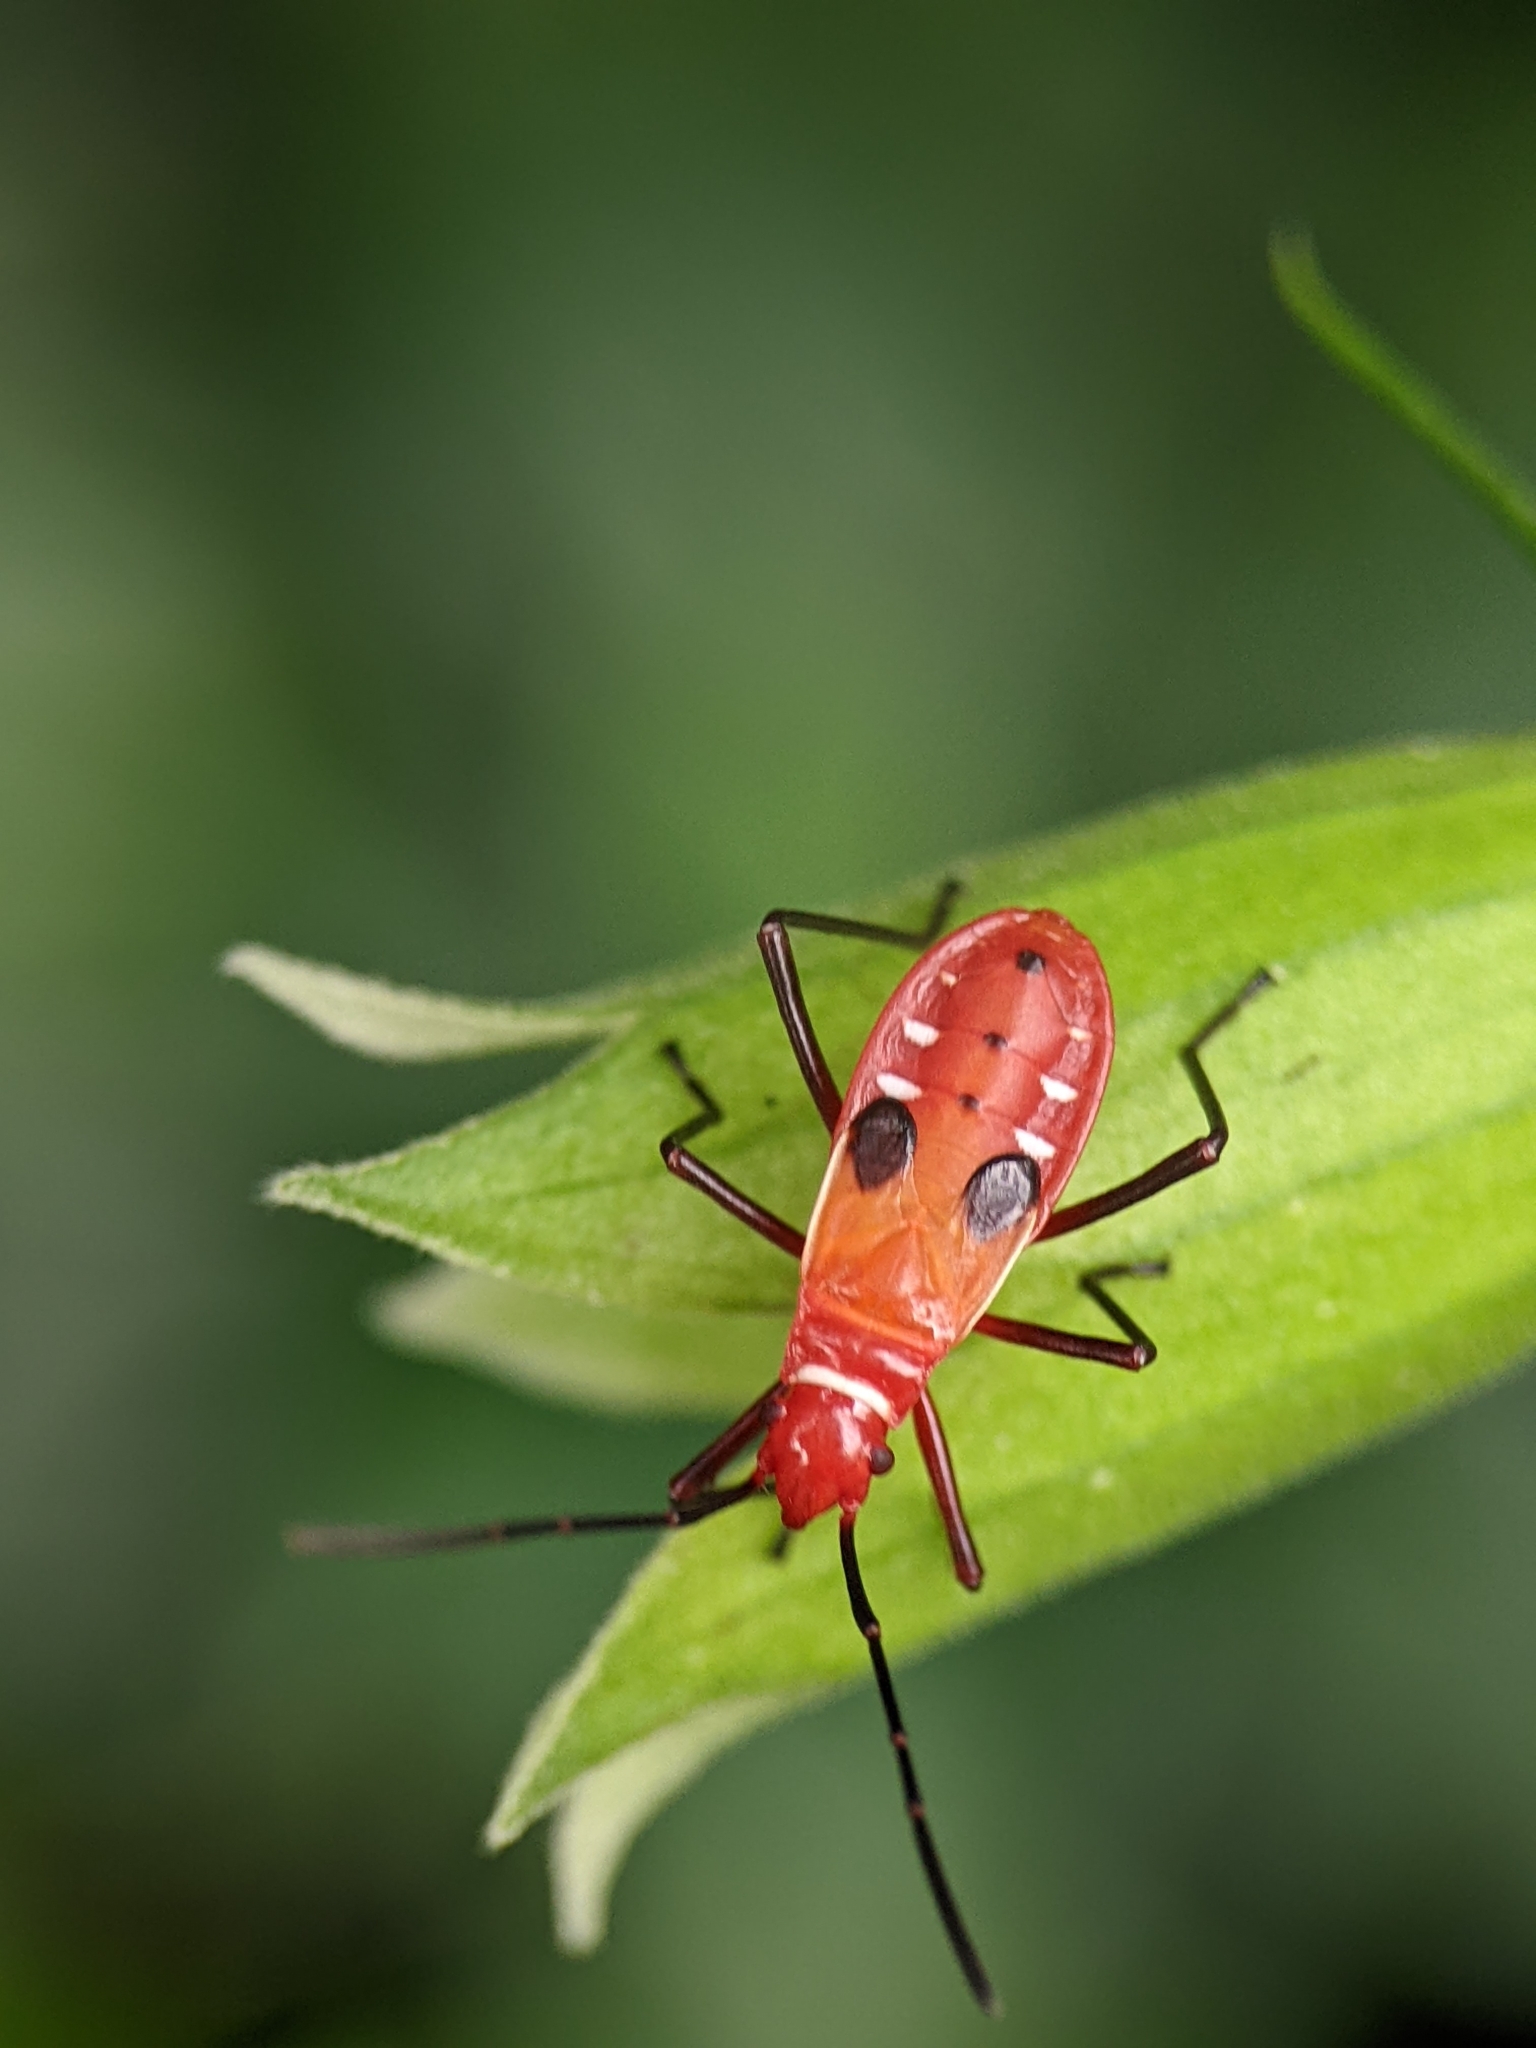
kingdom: Animalia
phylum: Arthropoda
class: Insecta
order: Hemiptera
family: Pyrrhocoridae
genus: Dysdercus
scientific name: Dysdercus cingulatus
